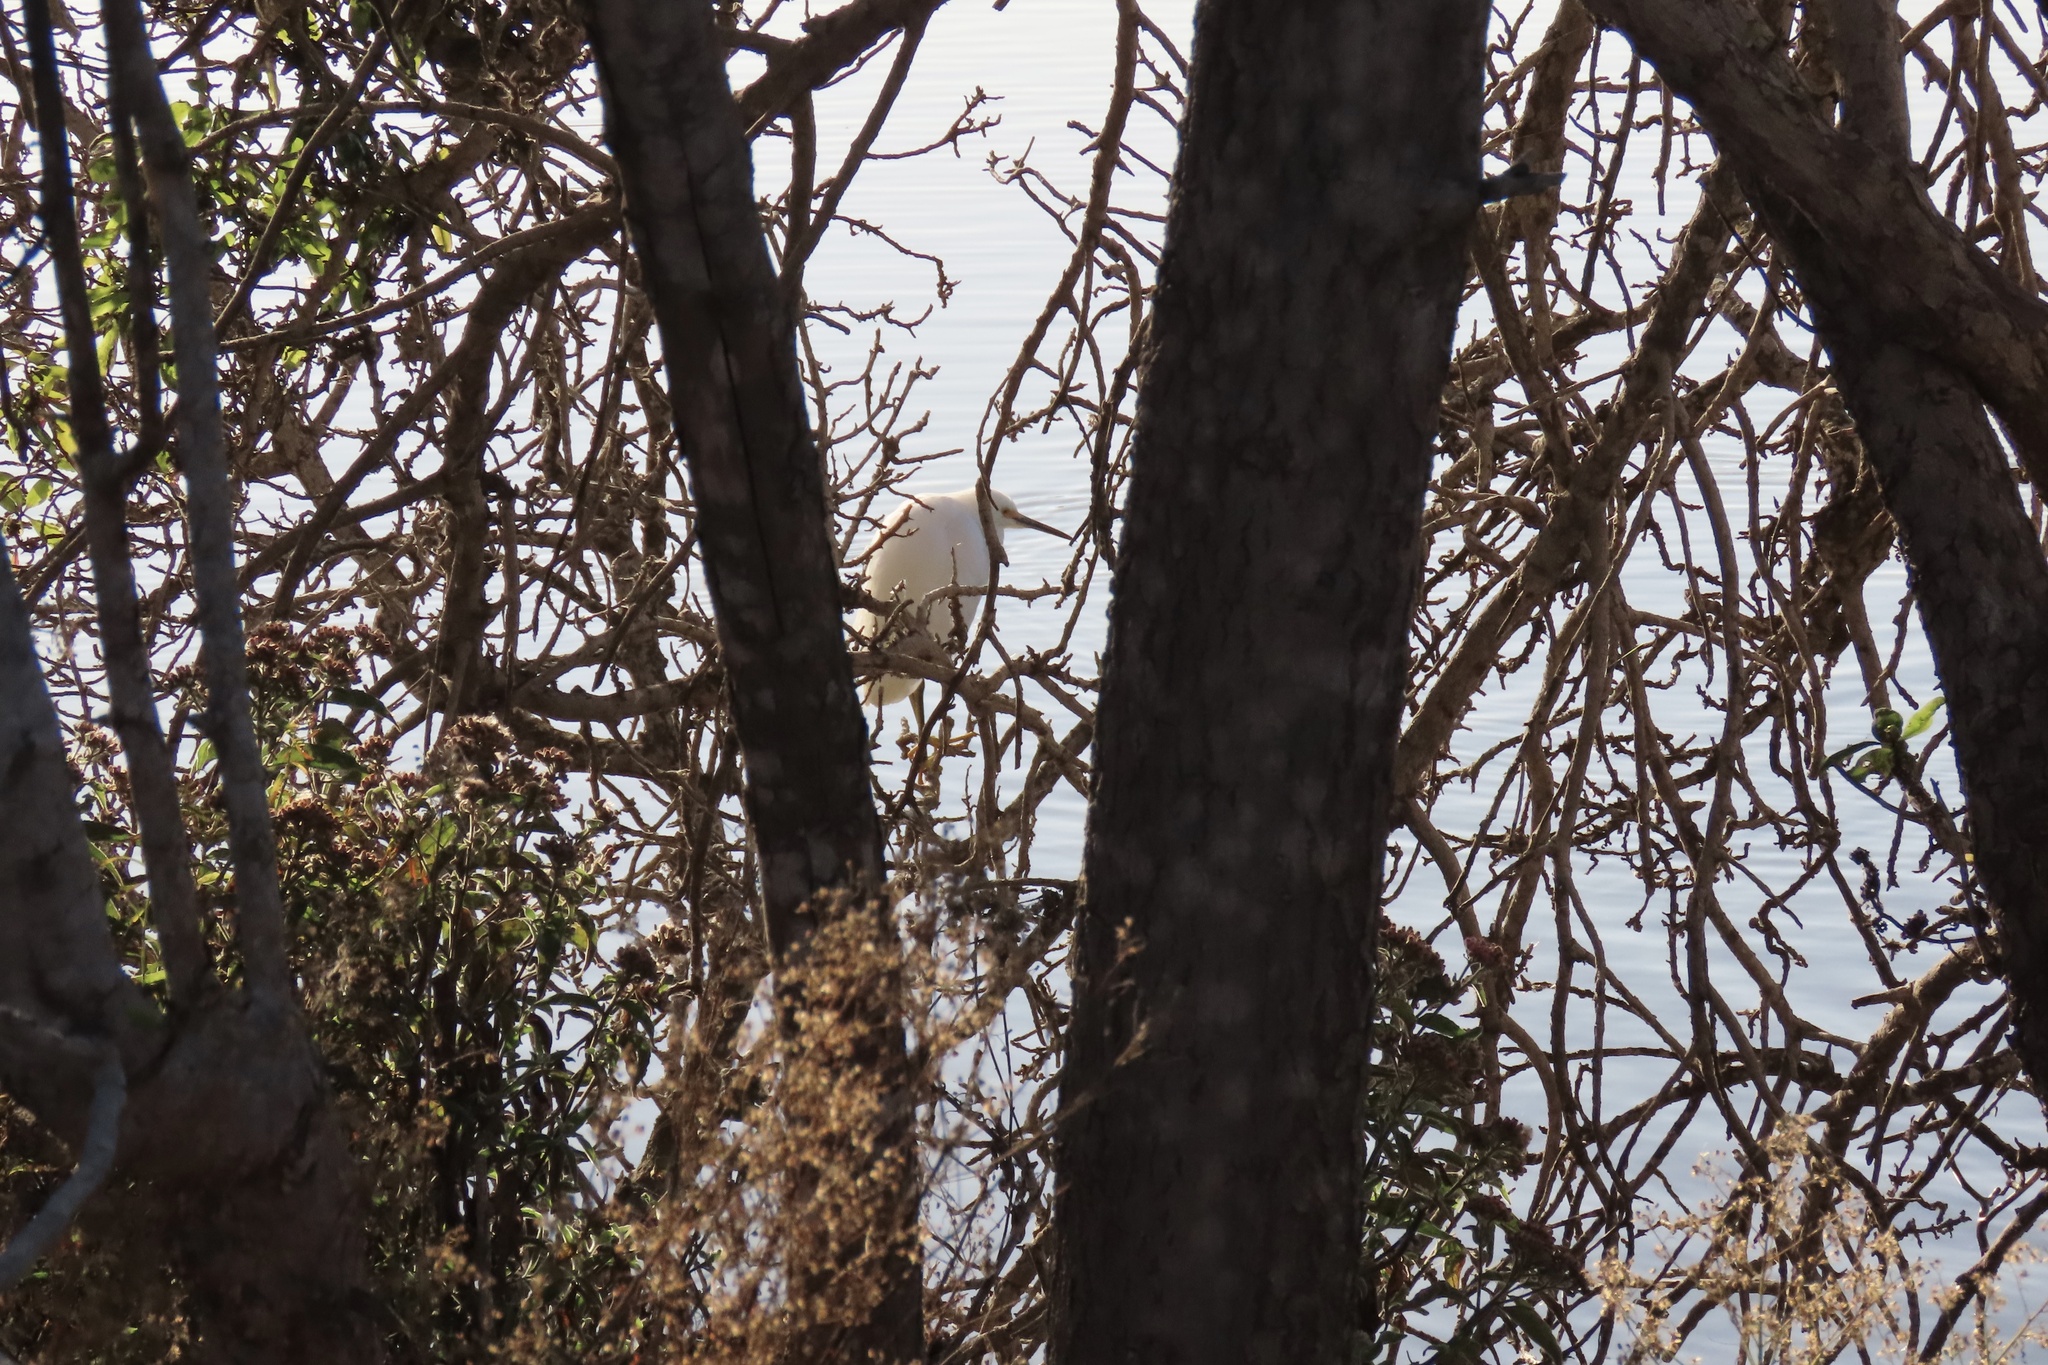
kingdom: Animalia
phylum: Chordata
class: Aves
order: Pelecaniformes
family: Ardeidae
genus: Egretta
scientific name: Egretta thula
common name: Snowy egret
